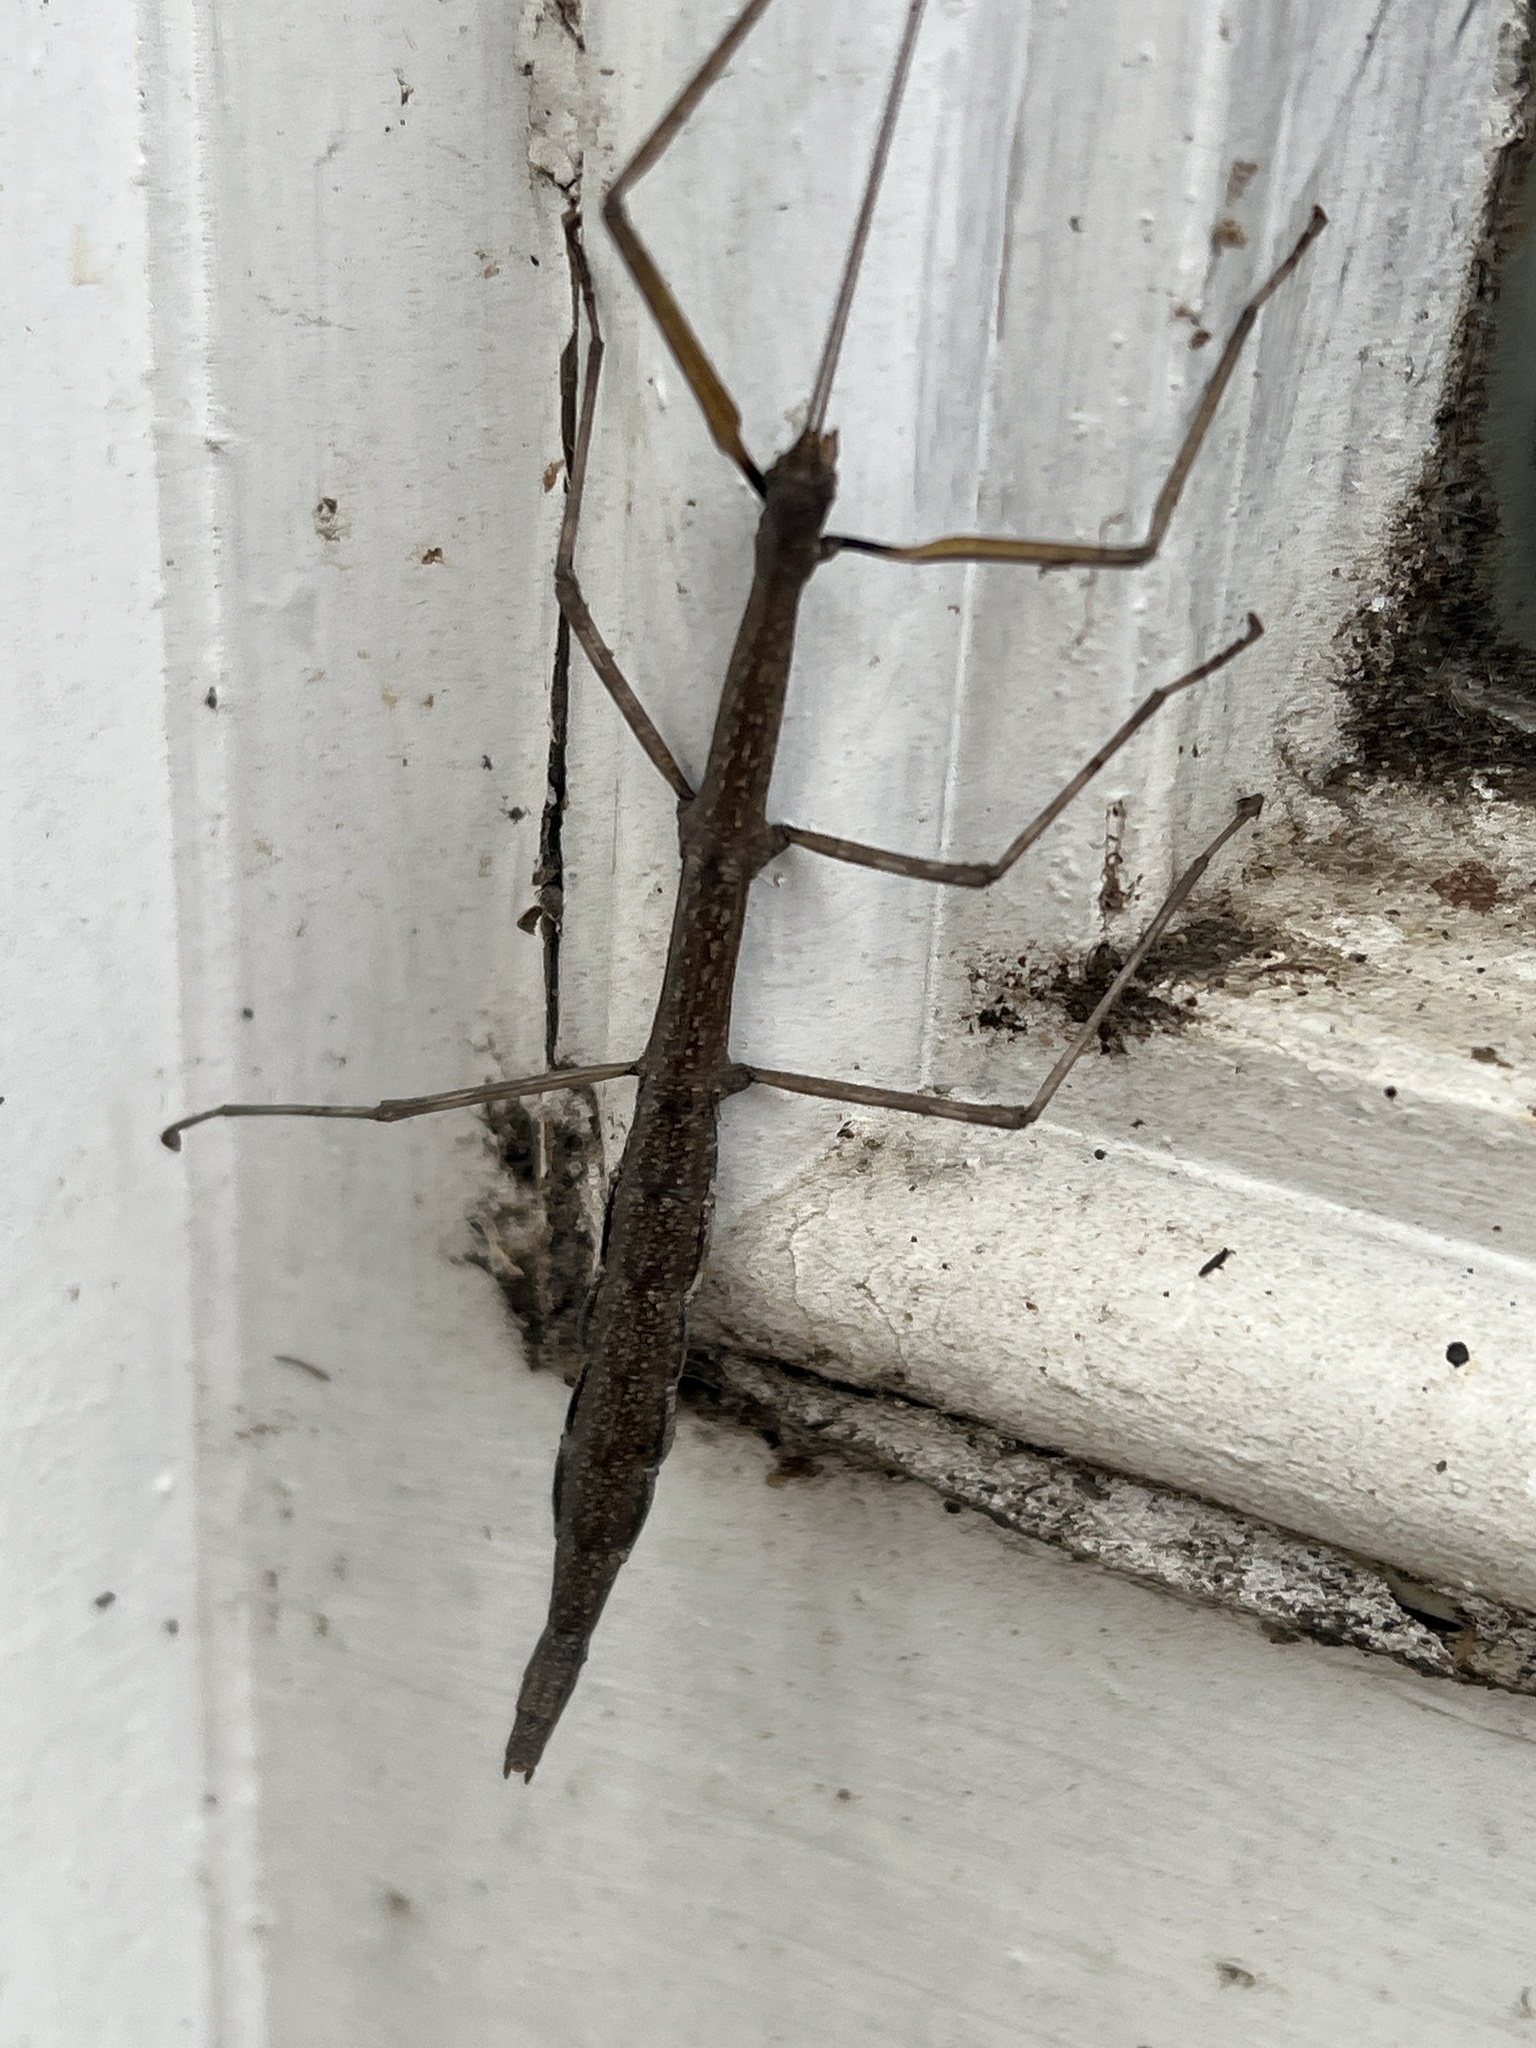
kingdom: Animalia
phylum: Arthropoda
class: Insecta
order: Phasmida
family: Diapheromeridae
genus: Diapheromera
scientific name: Diapheromera femorata
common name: Common american walkingstick
